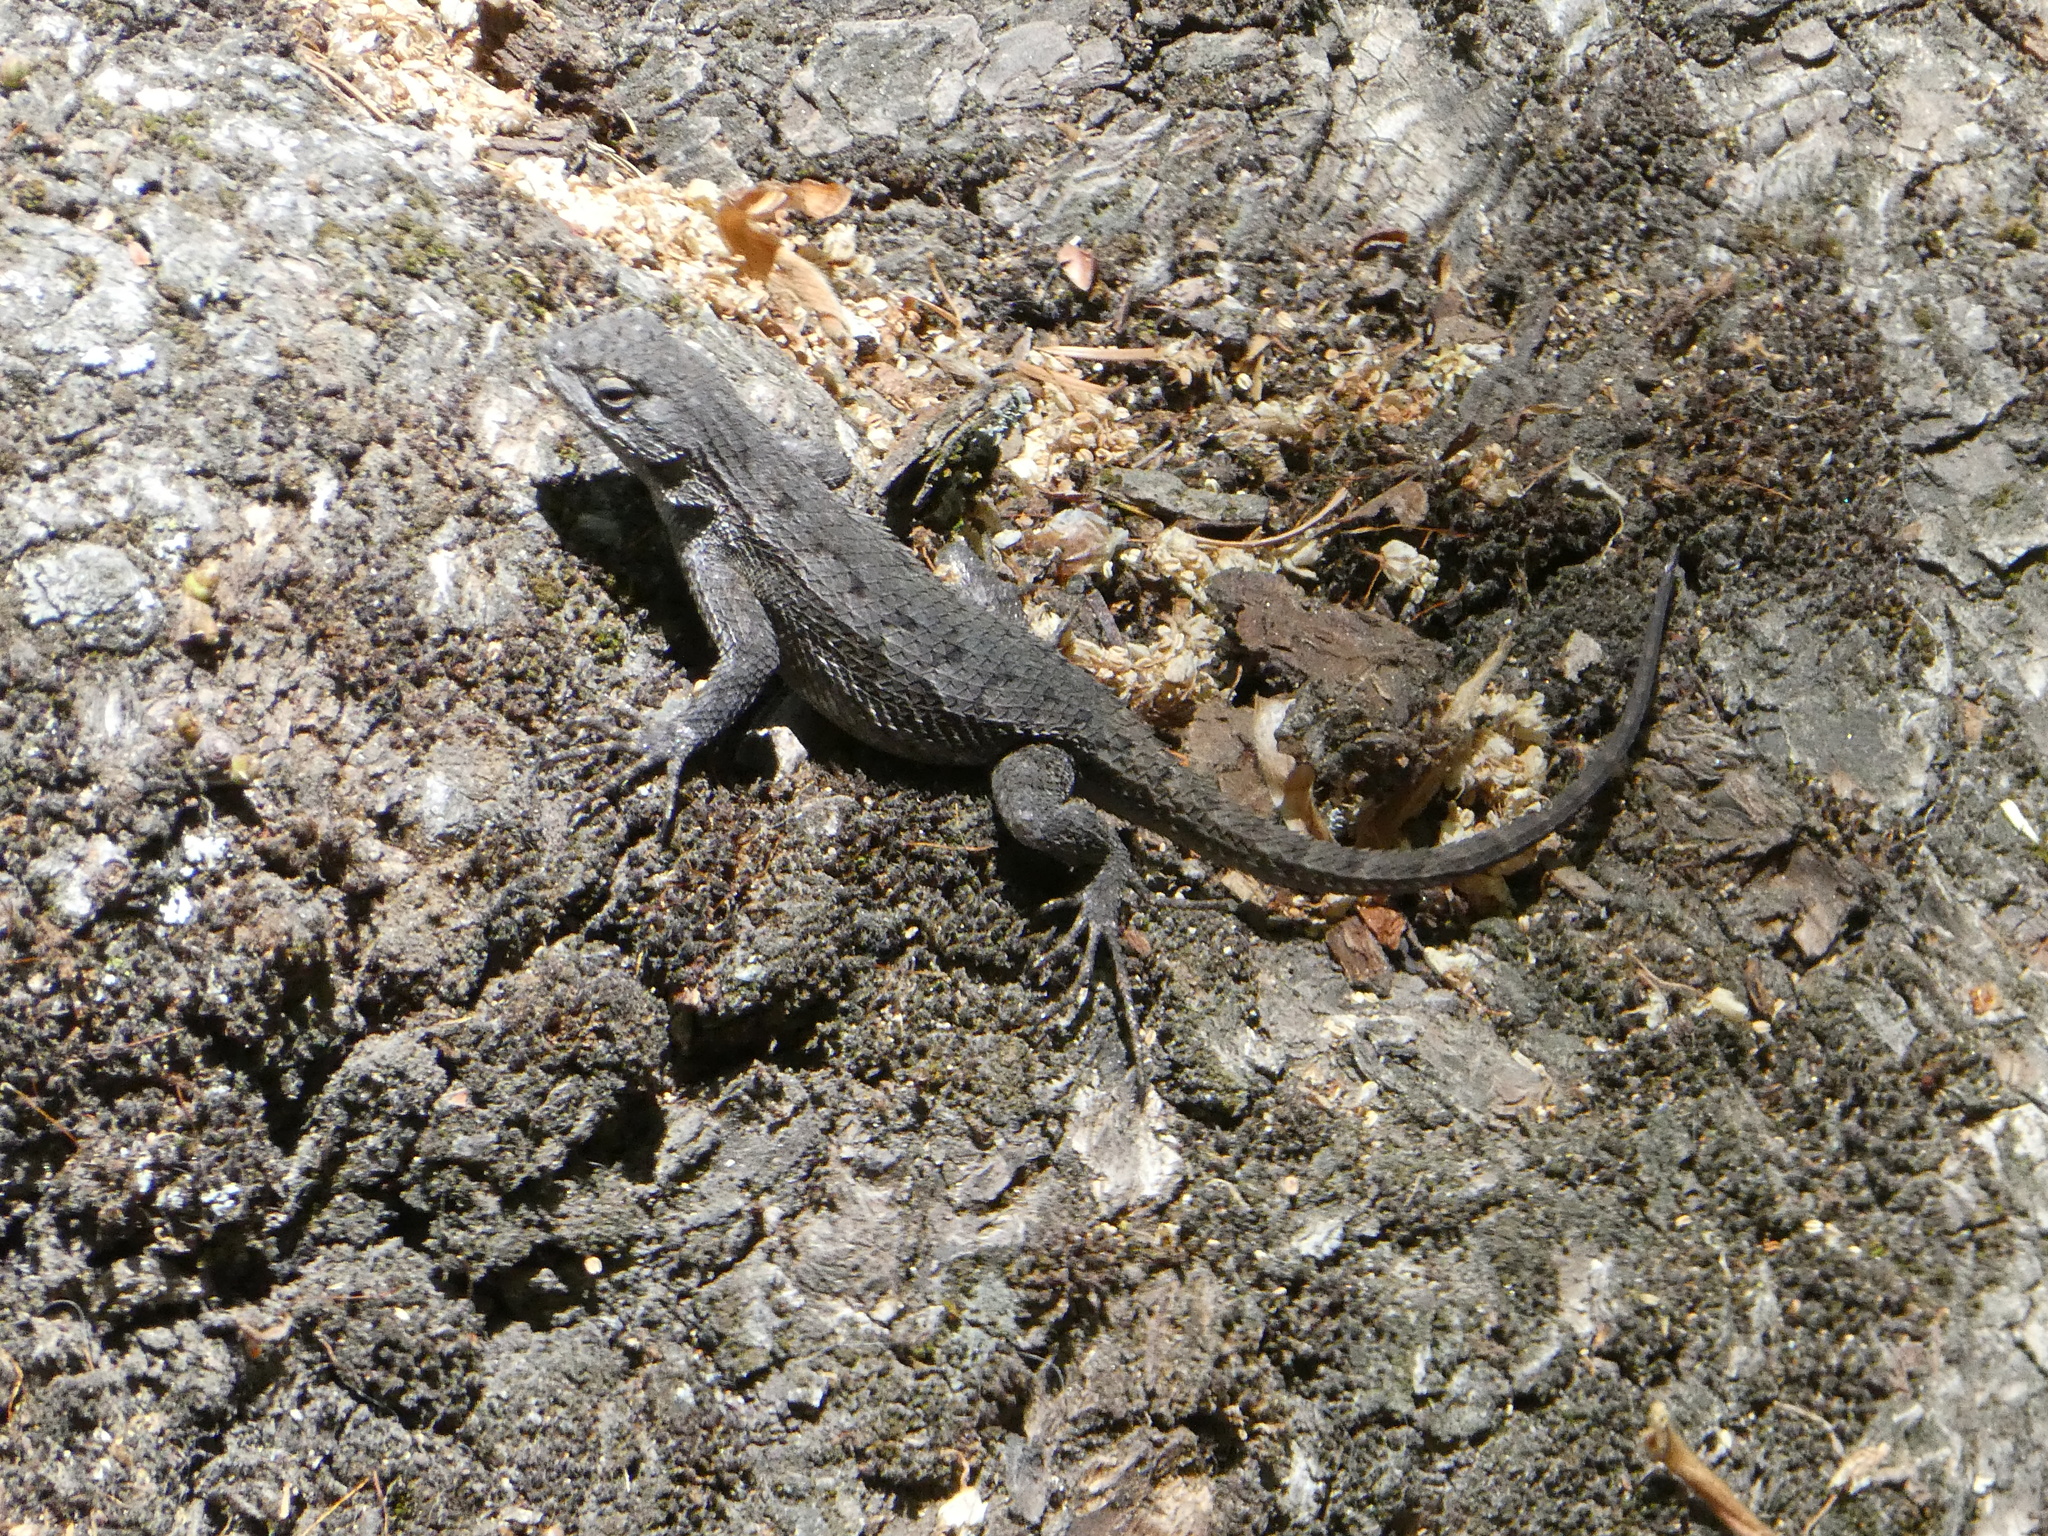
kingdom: Animalia
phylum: Chordata
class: Squamata
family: Phrynosomatidae
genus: Sceloporus
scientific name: Sceloporus occidentalis
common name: Western fence lizard
